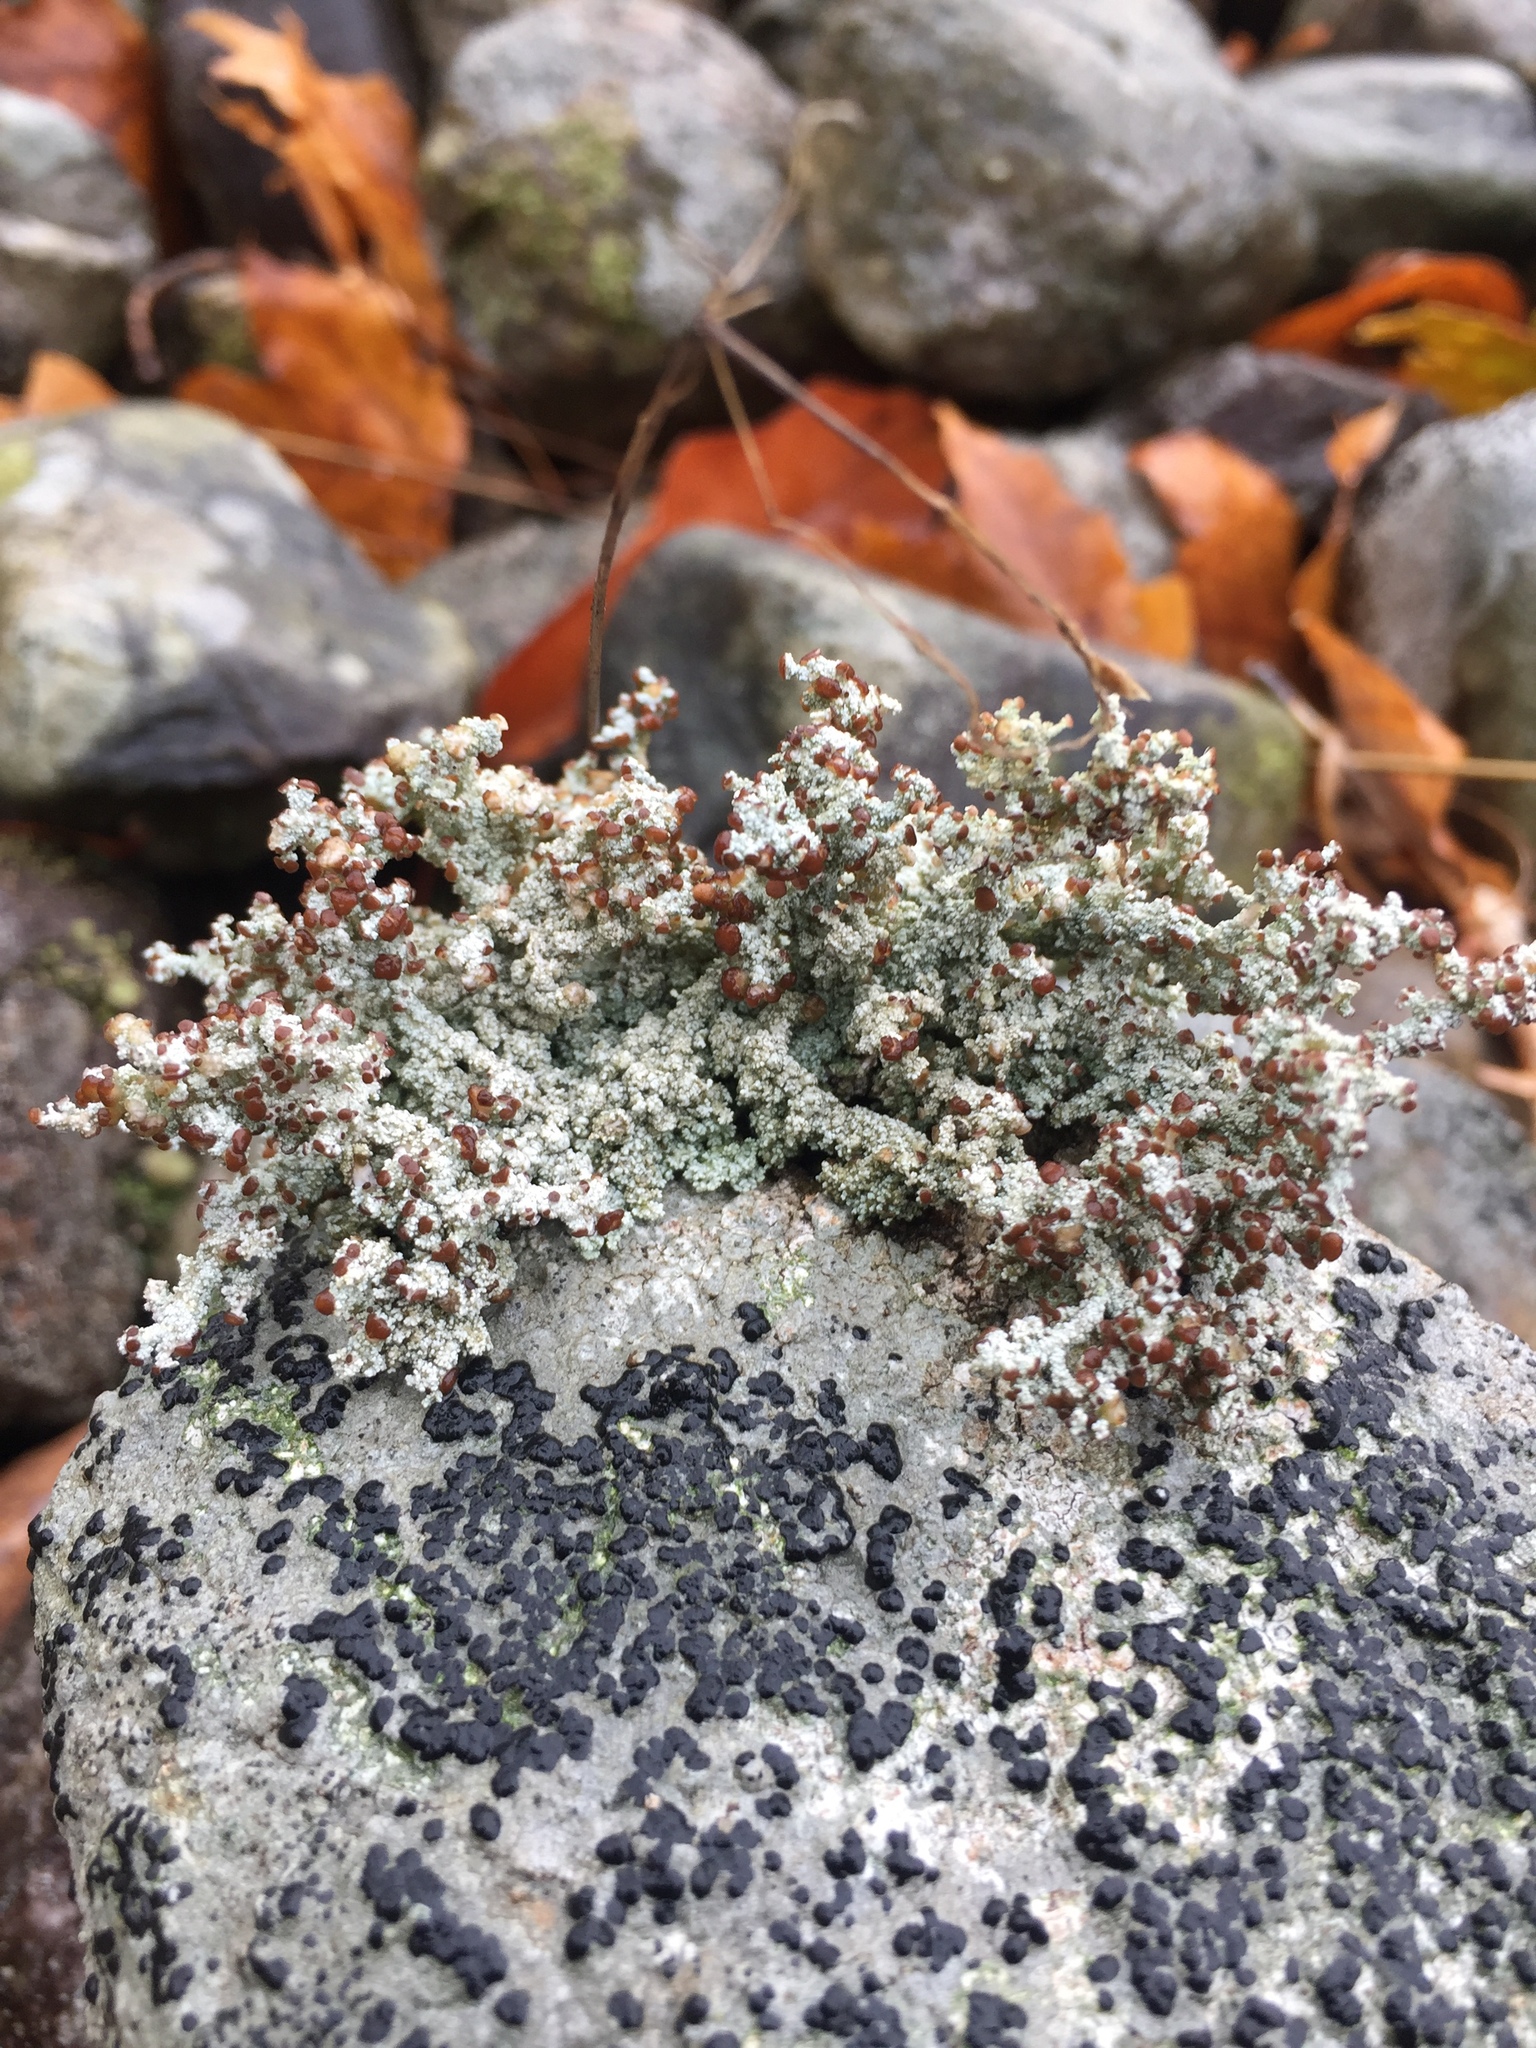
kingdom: Fungi
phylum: Ascomycota
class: Lecanoromycetes
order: Lecanorales
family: Stereocaulaceae
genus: Stereocaulon
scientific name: Stereocaulon dactylophyllum
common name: Finger-scale foam lichen
